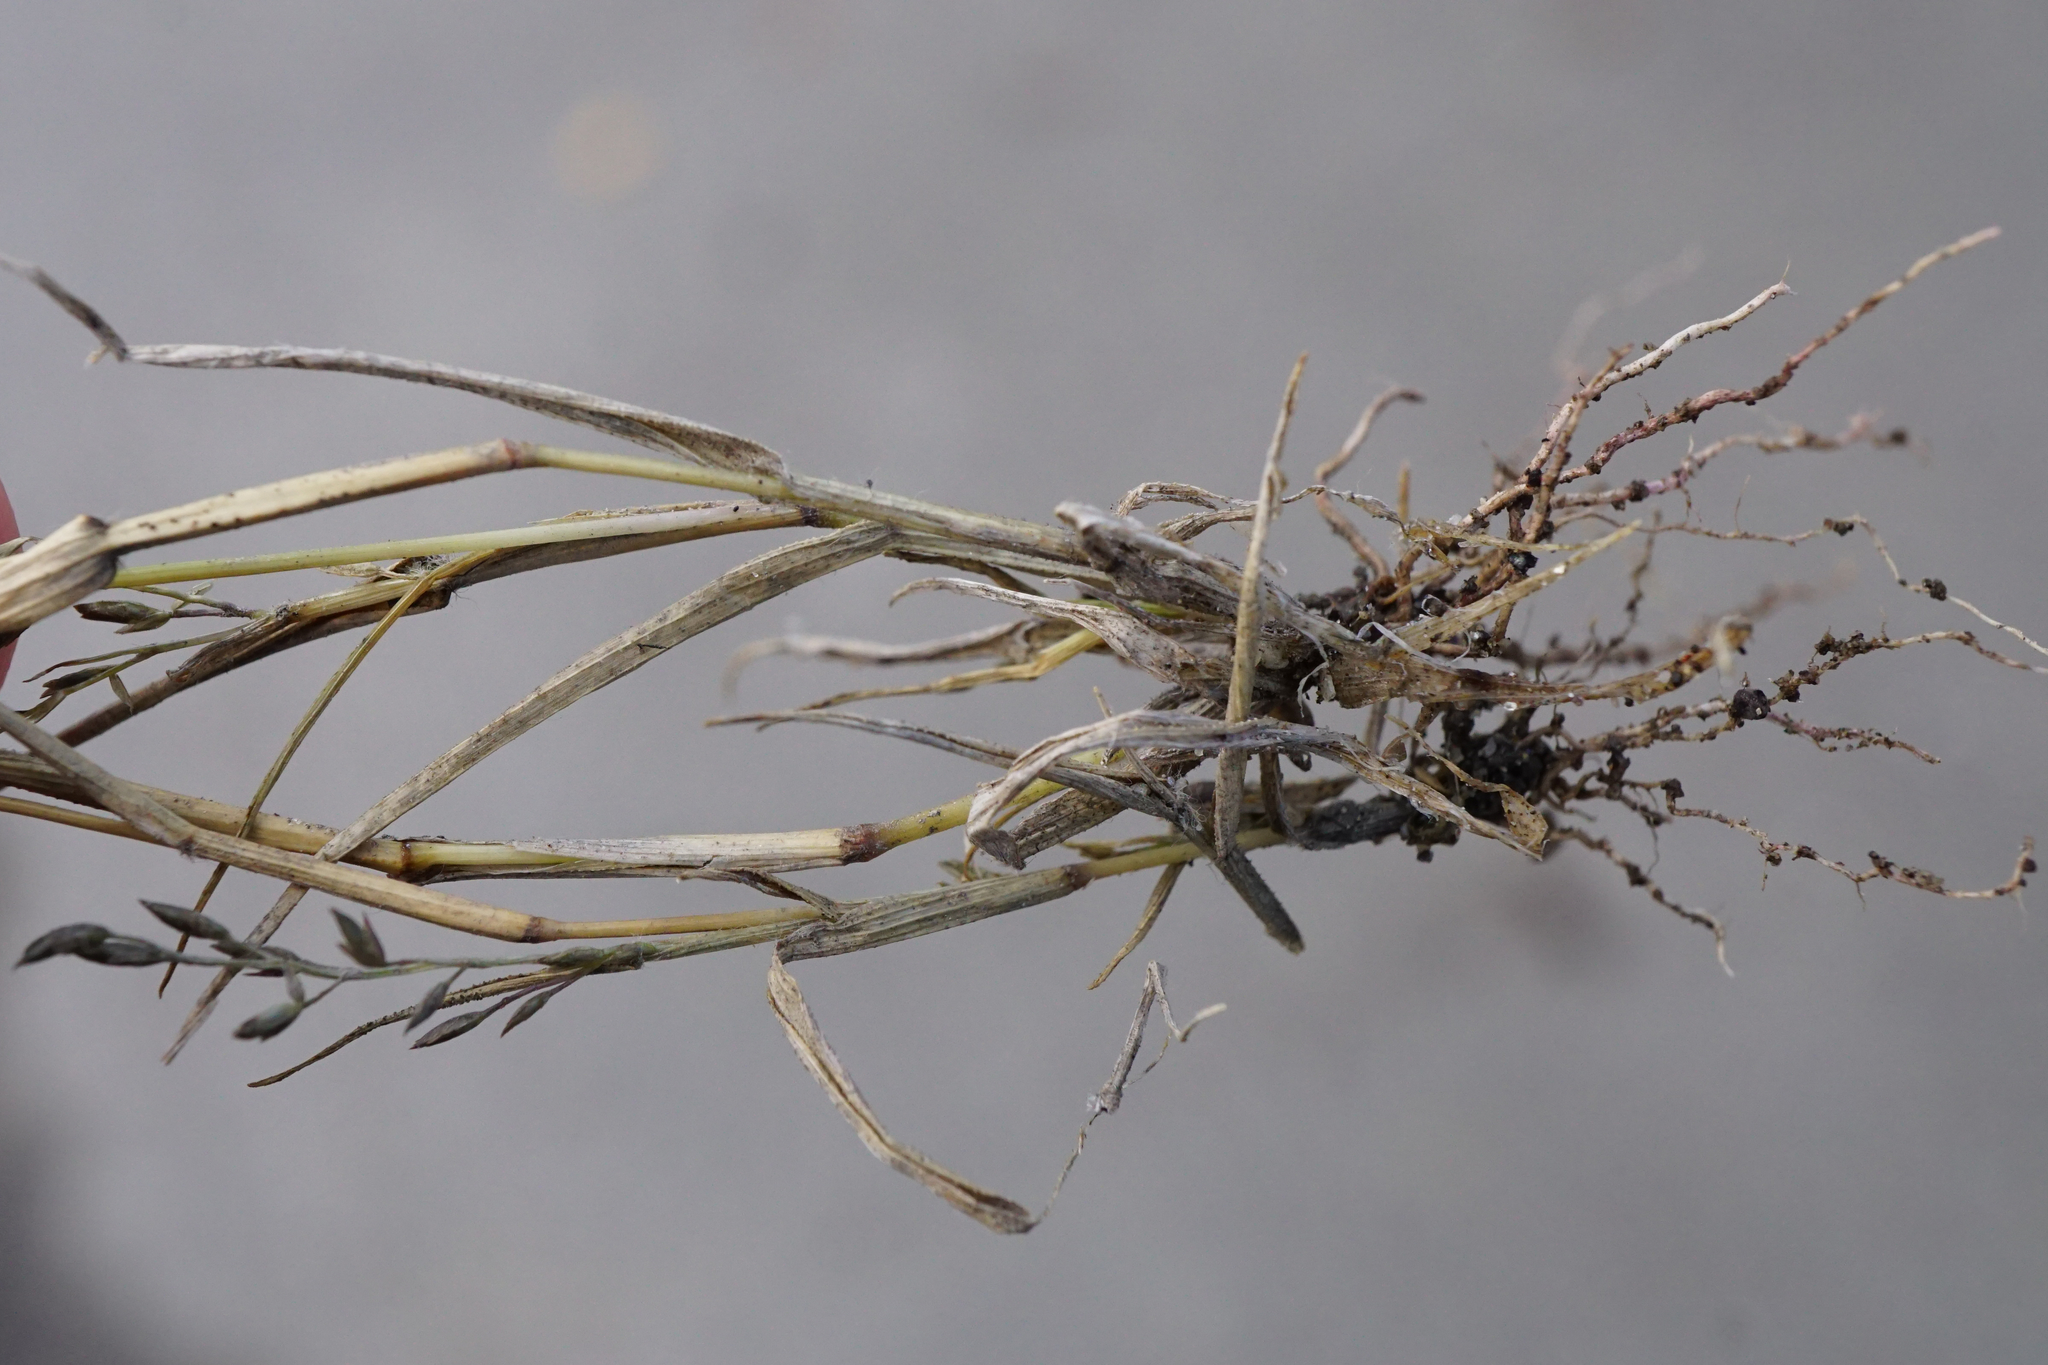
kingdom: Plantae
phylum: Tracheophyta
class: Liliopsida
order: Poales
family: Poaceae
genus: Eragrostis
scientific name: Eragrostis minor
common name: Small love-grass
